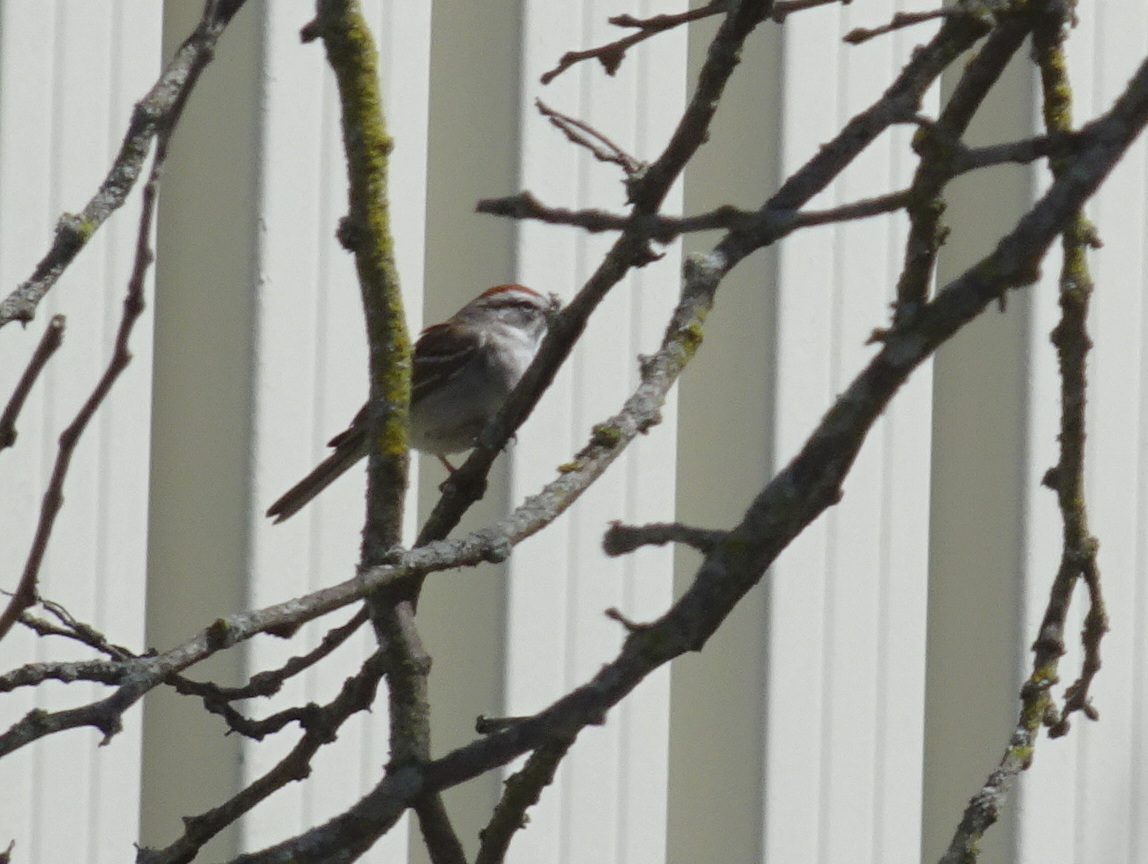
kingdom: Animalia
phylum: Chordata
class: Aves
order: Passeriformes
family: Passerellidae
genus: Spizella
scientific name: Spizella passerina
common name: Chipping sparrow
